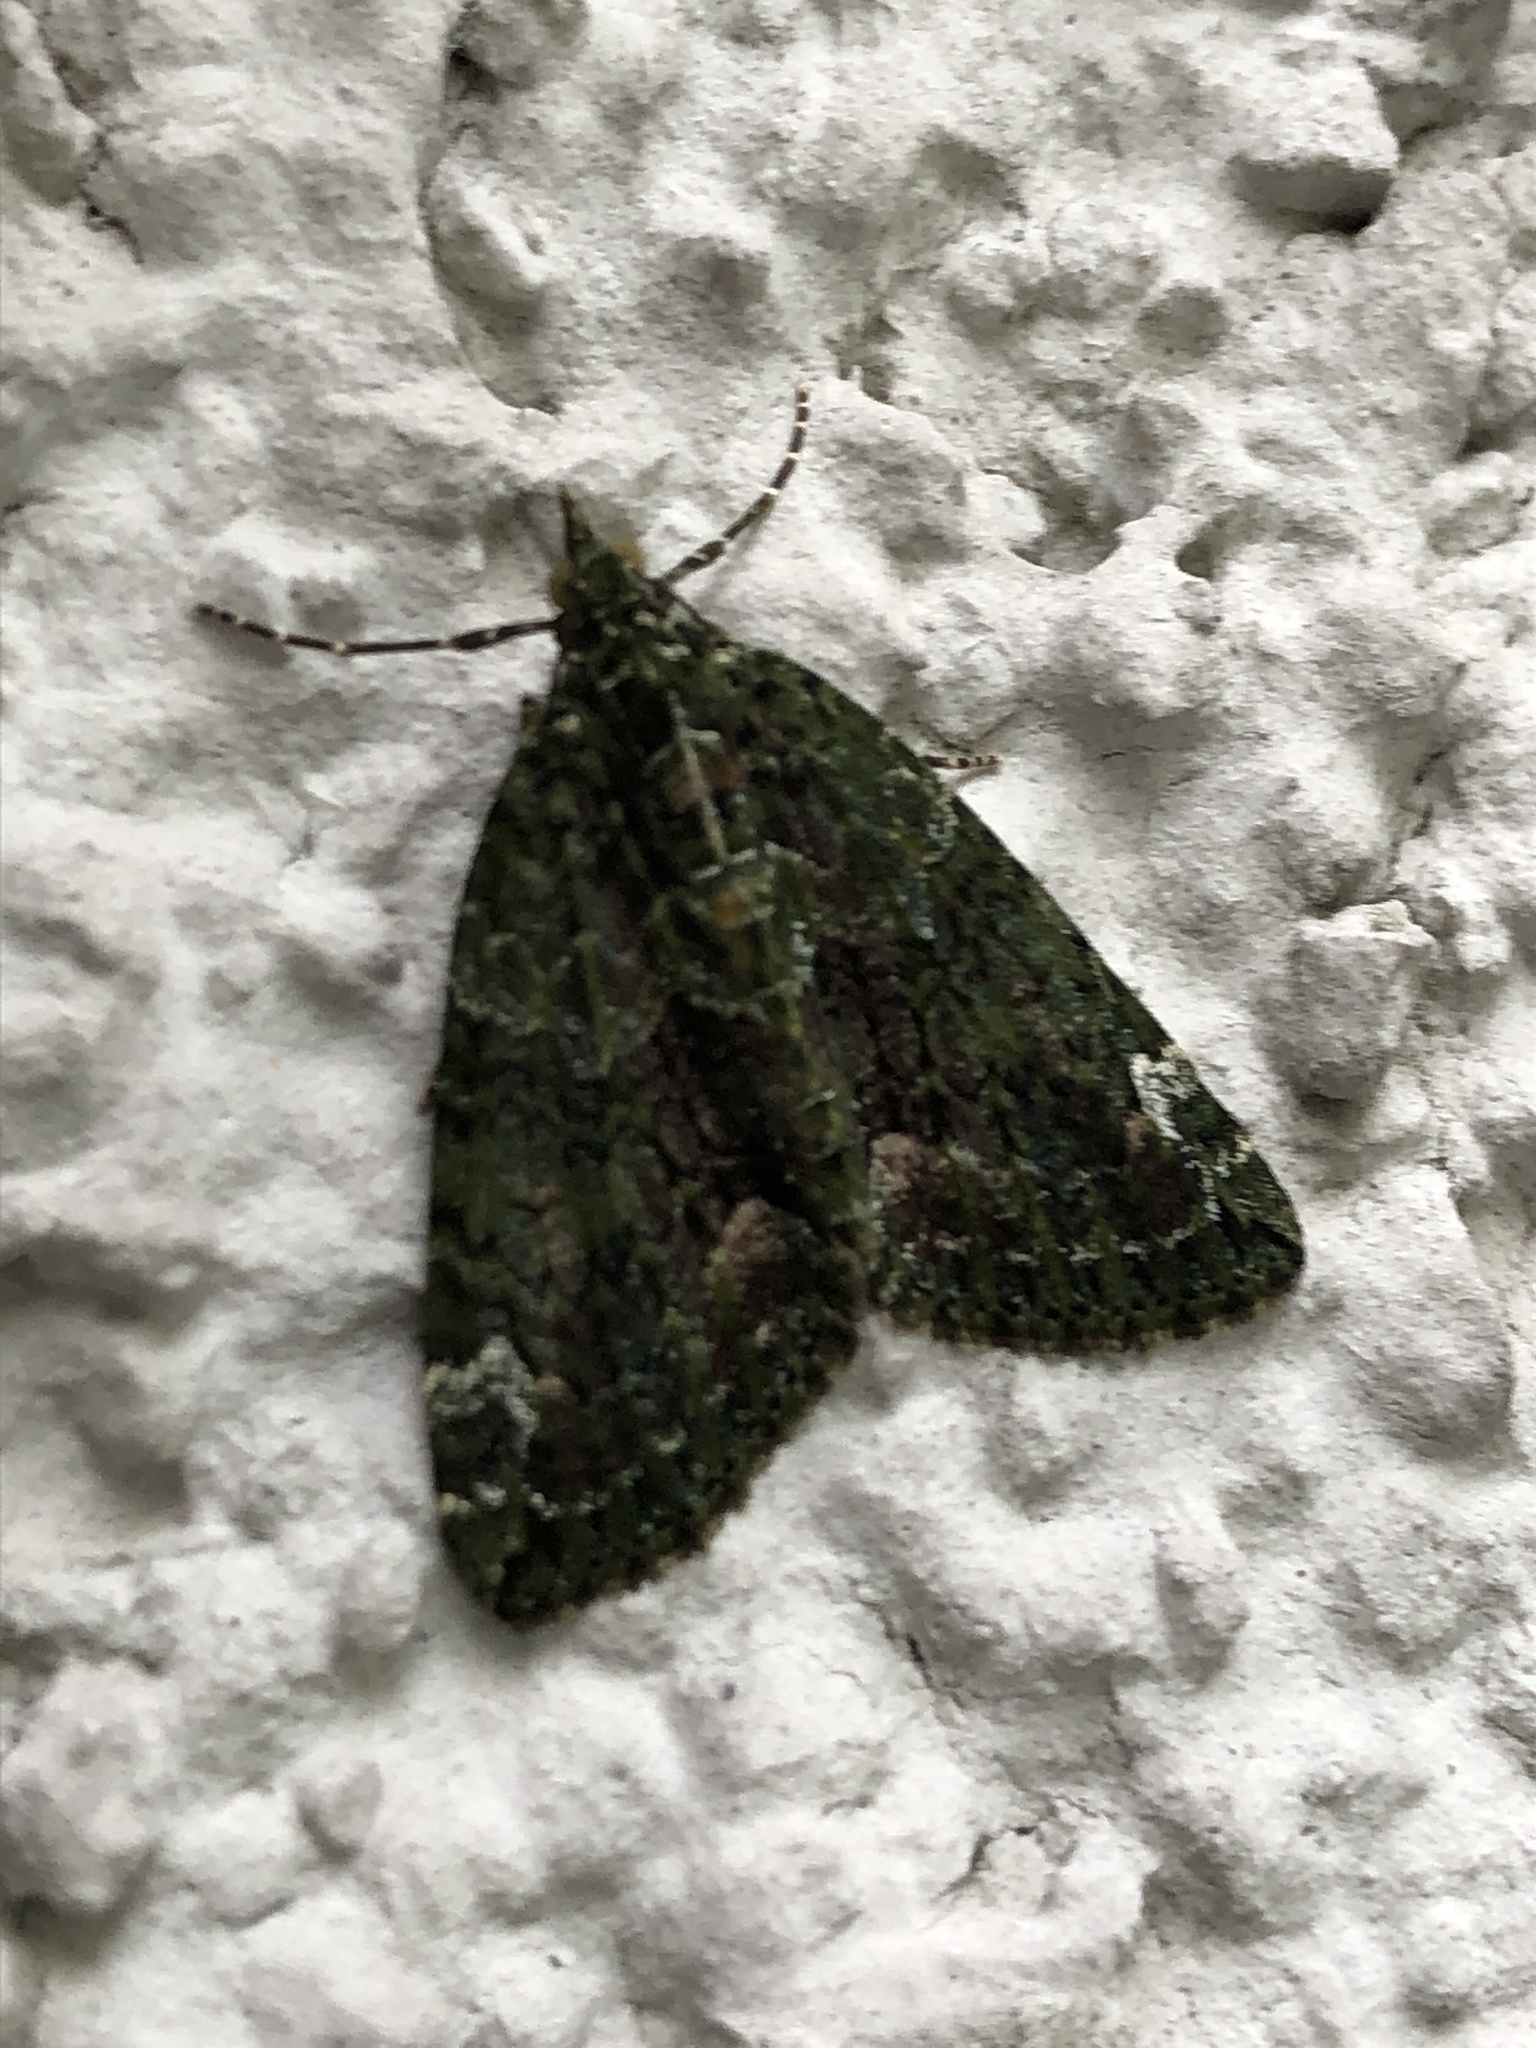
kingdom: Animalia
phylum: Arthropoda
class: Insecta
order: Lepidoptera
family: Geometridae
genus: Chloroclysta
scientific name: Chloroclysta siterata
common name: Red-green carpet
